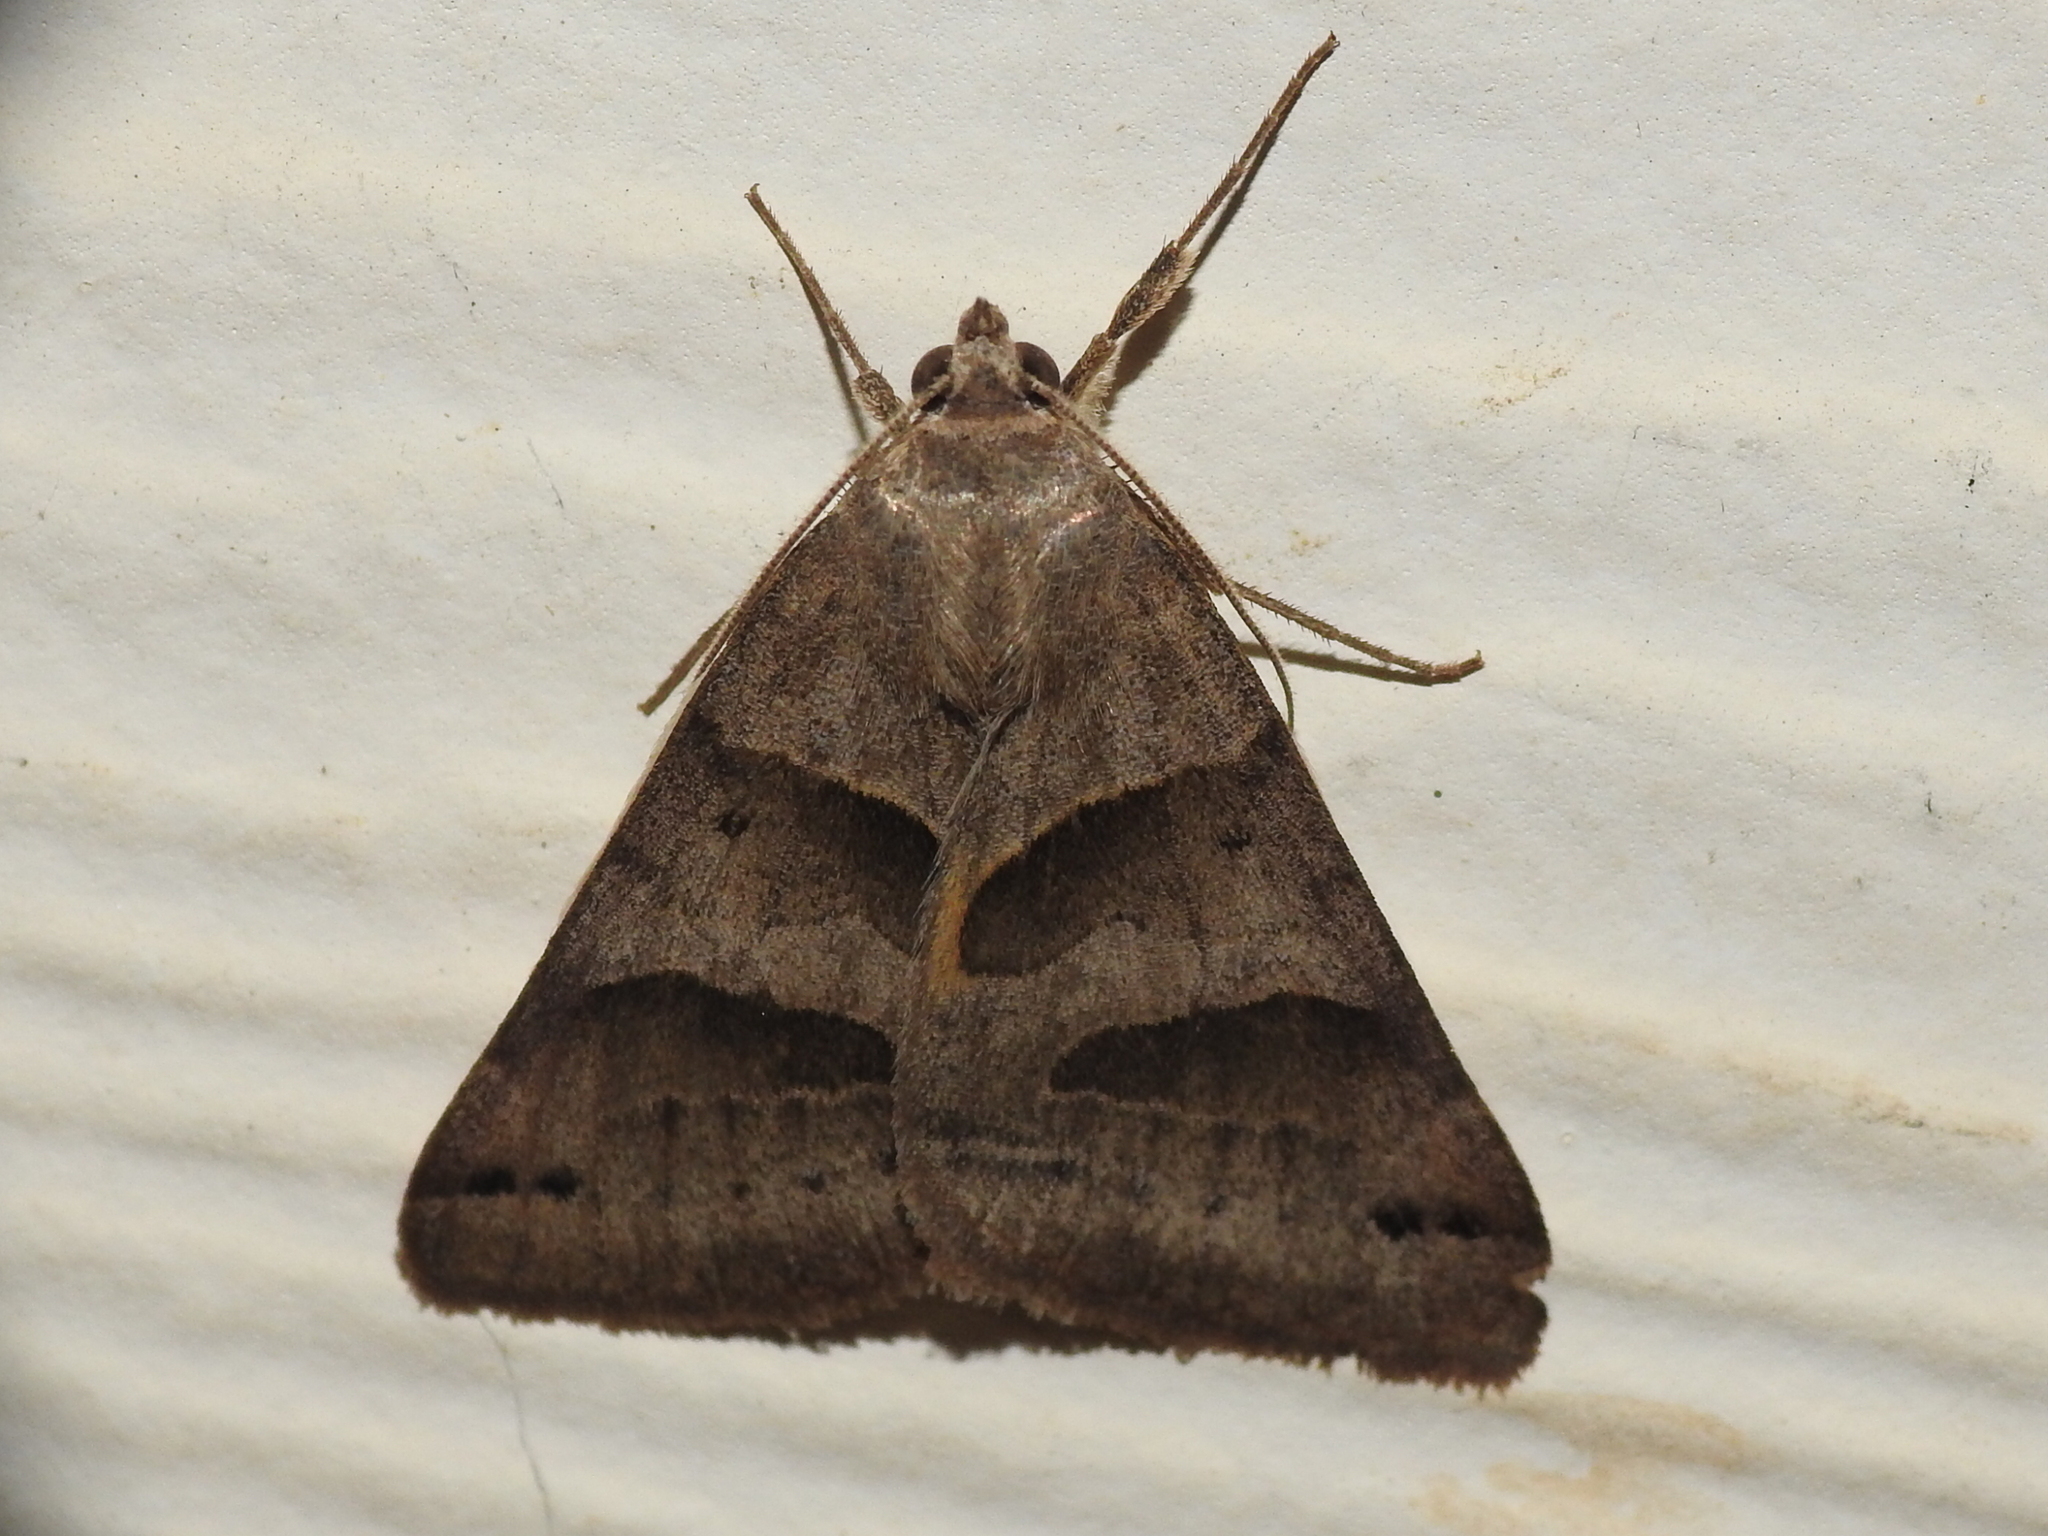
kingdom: Animalia
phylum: Arthropoda
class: Insecta
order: Lepidoptera
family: Erebidae
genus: Caenurgina
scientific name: Caenurgina erechtea
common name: Forage looper moth
